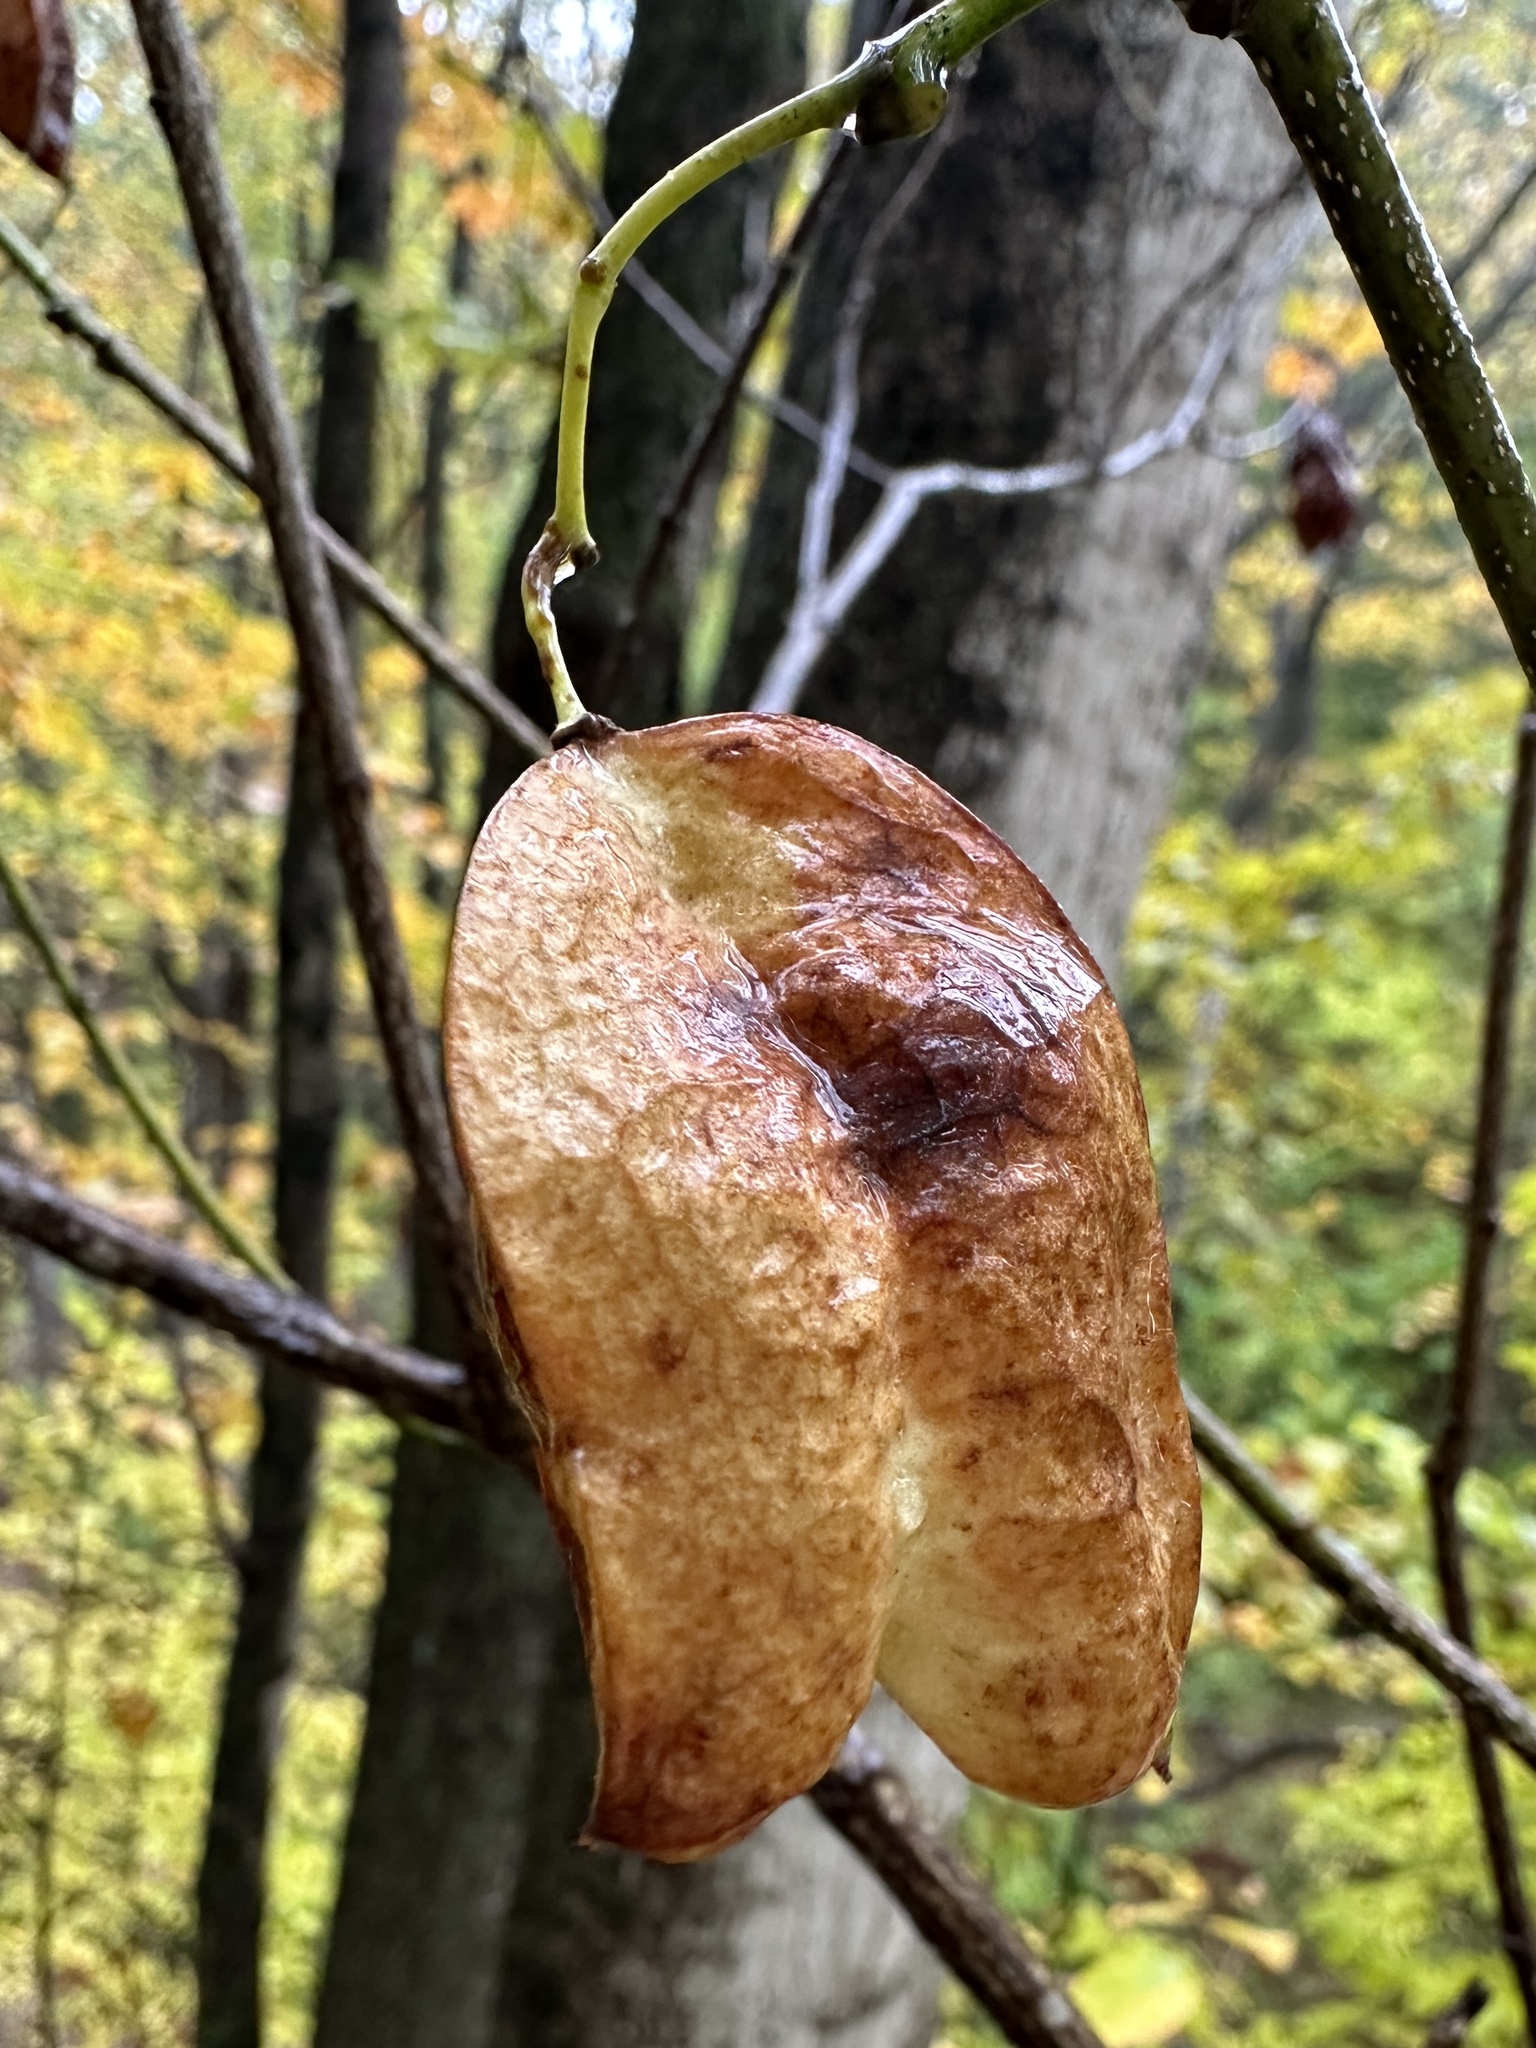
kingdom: Plantae
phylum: Tracheophyta
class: Magnoliopsida
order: Crossosomatales
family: Staphyleaceae
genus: Staphylea
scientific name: Staphylea trifolia
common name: American bladdernut
